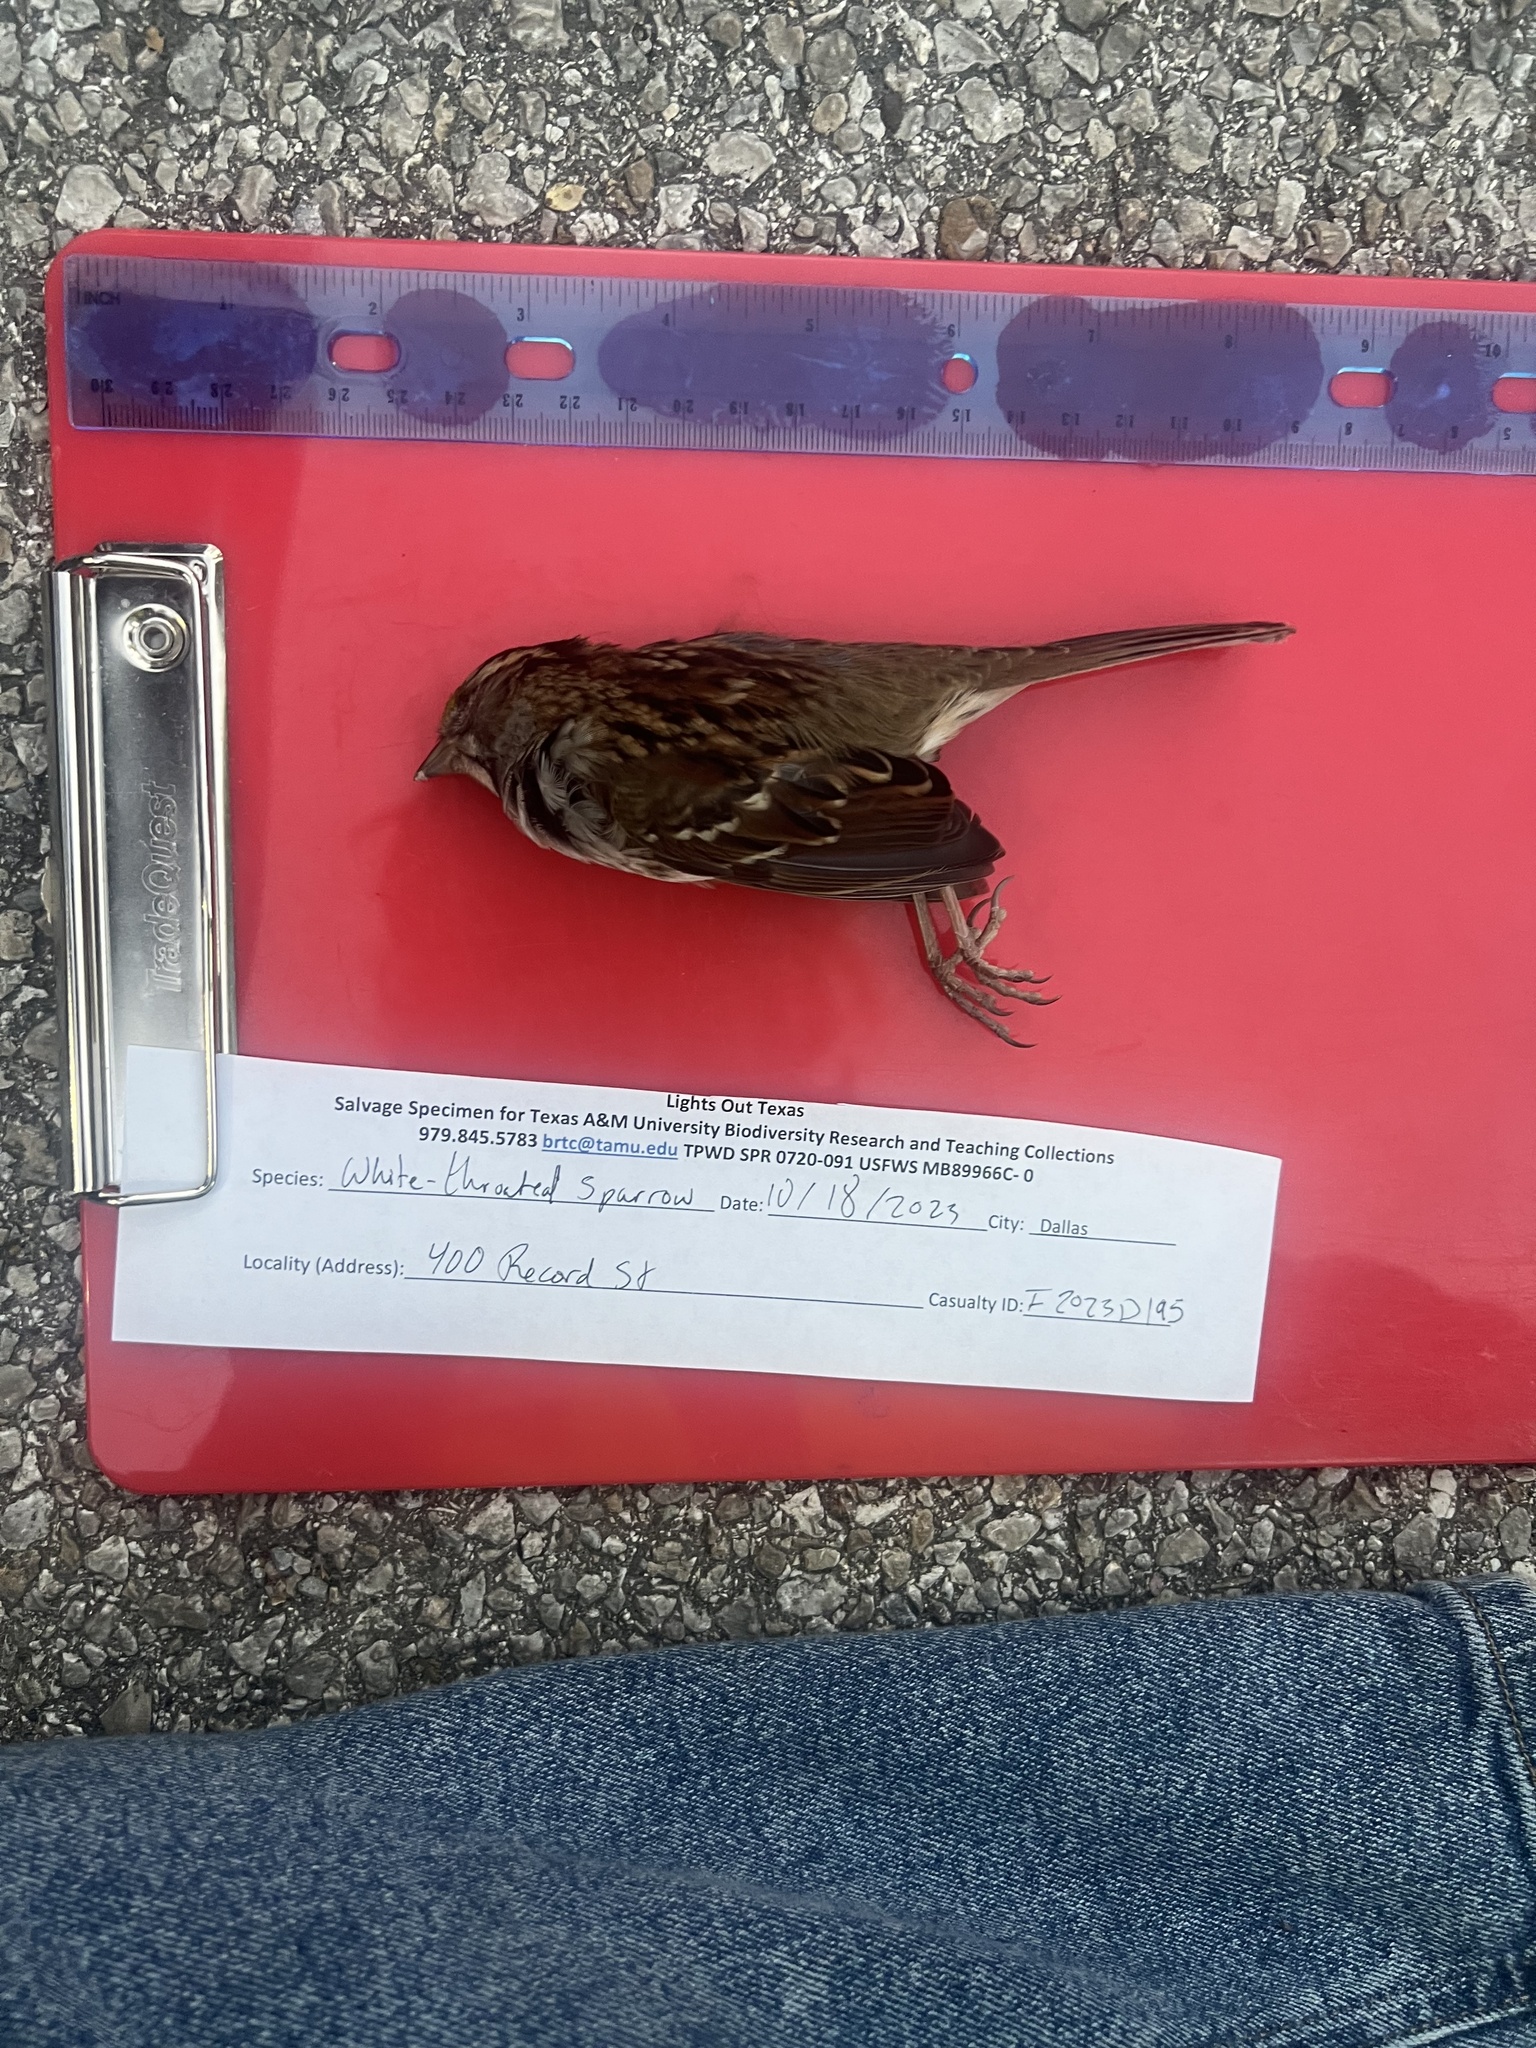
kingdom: Animalia
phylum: Chordata
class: Aves
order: Passeriformes
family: Passerellidae
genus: Zonotrichia
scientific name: Zonotrichia albicollis
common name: White-throated sparrow
